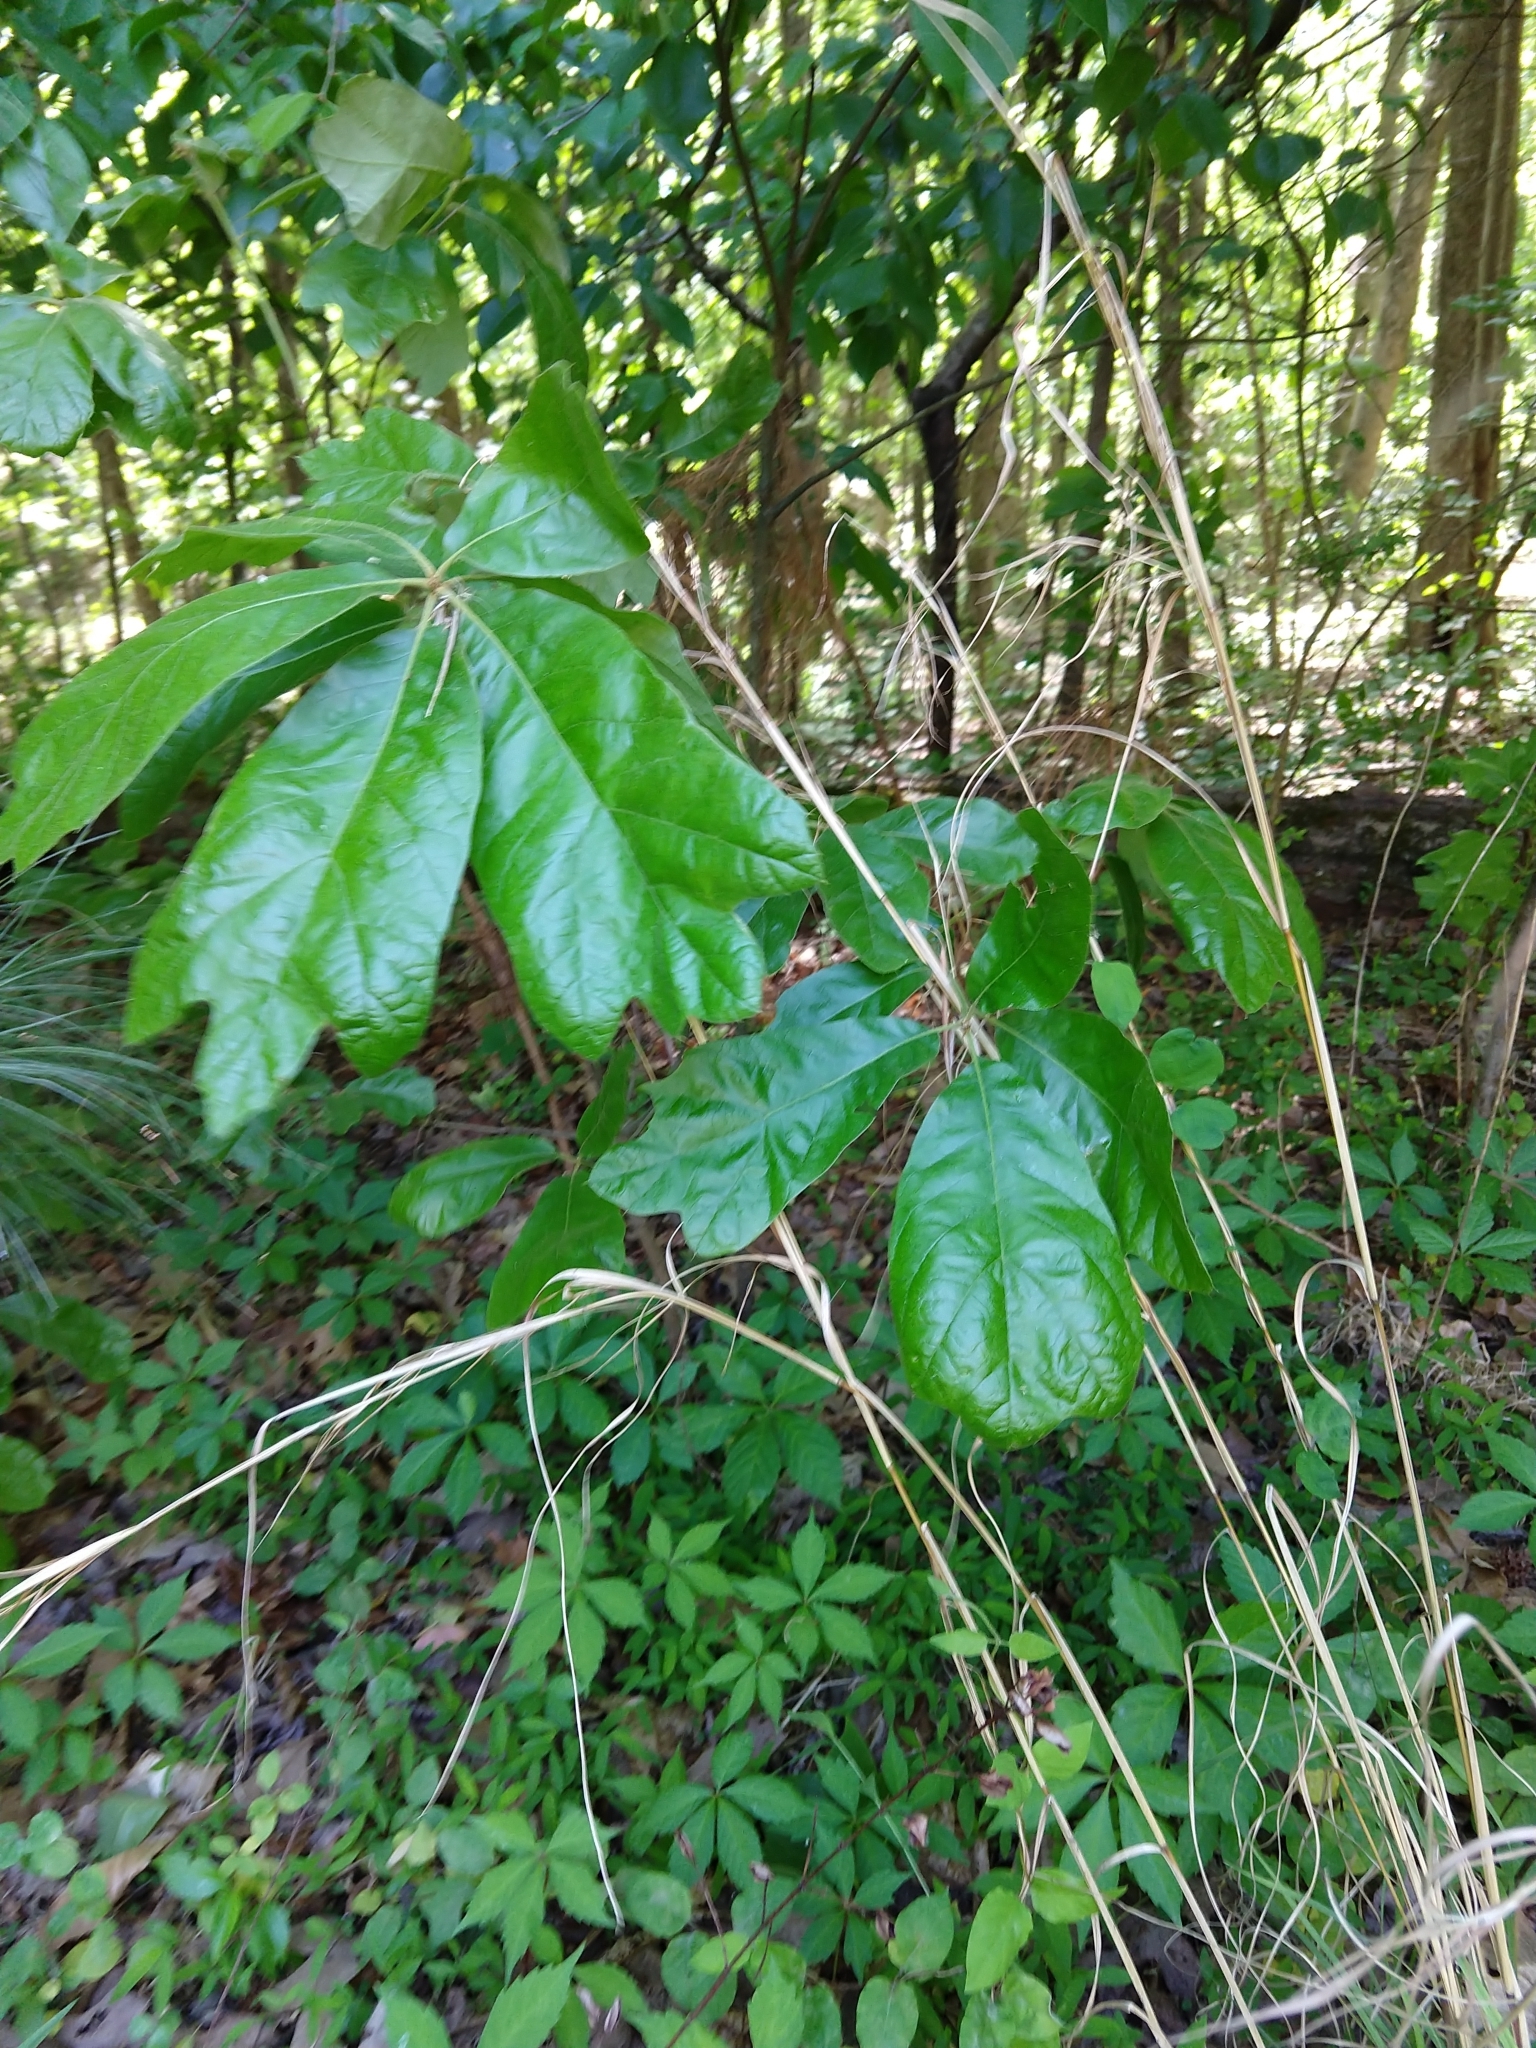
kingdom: Plantae
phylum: Tracheophyta
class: Magnoliopsida
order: Fagales
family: Fagaceae
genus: Quercus
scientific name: Quercus marilandica
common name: Blackjack oak
